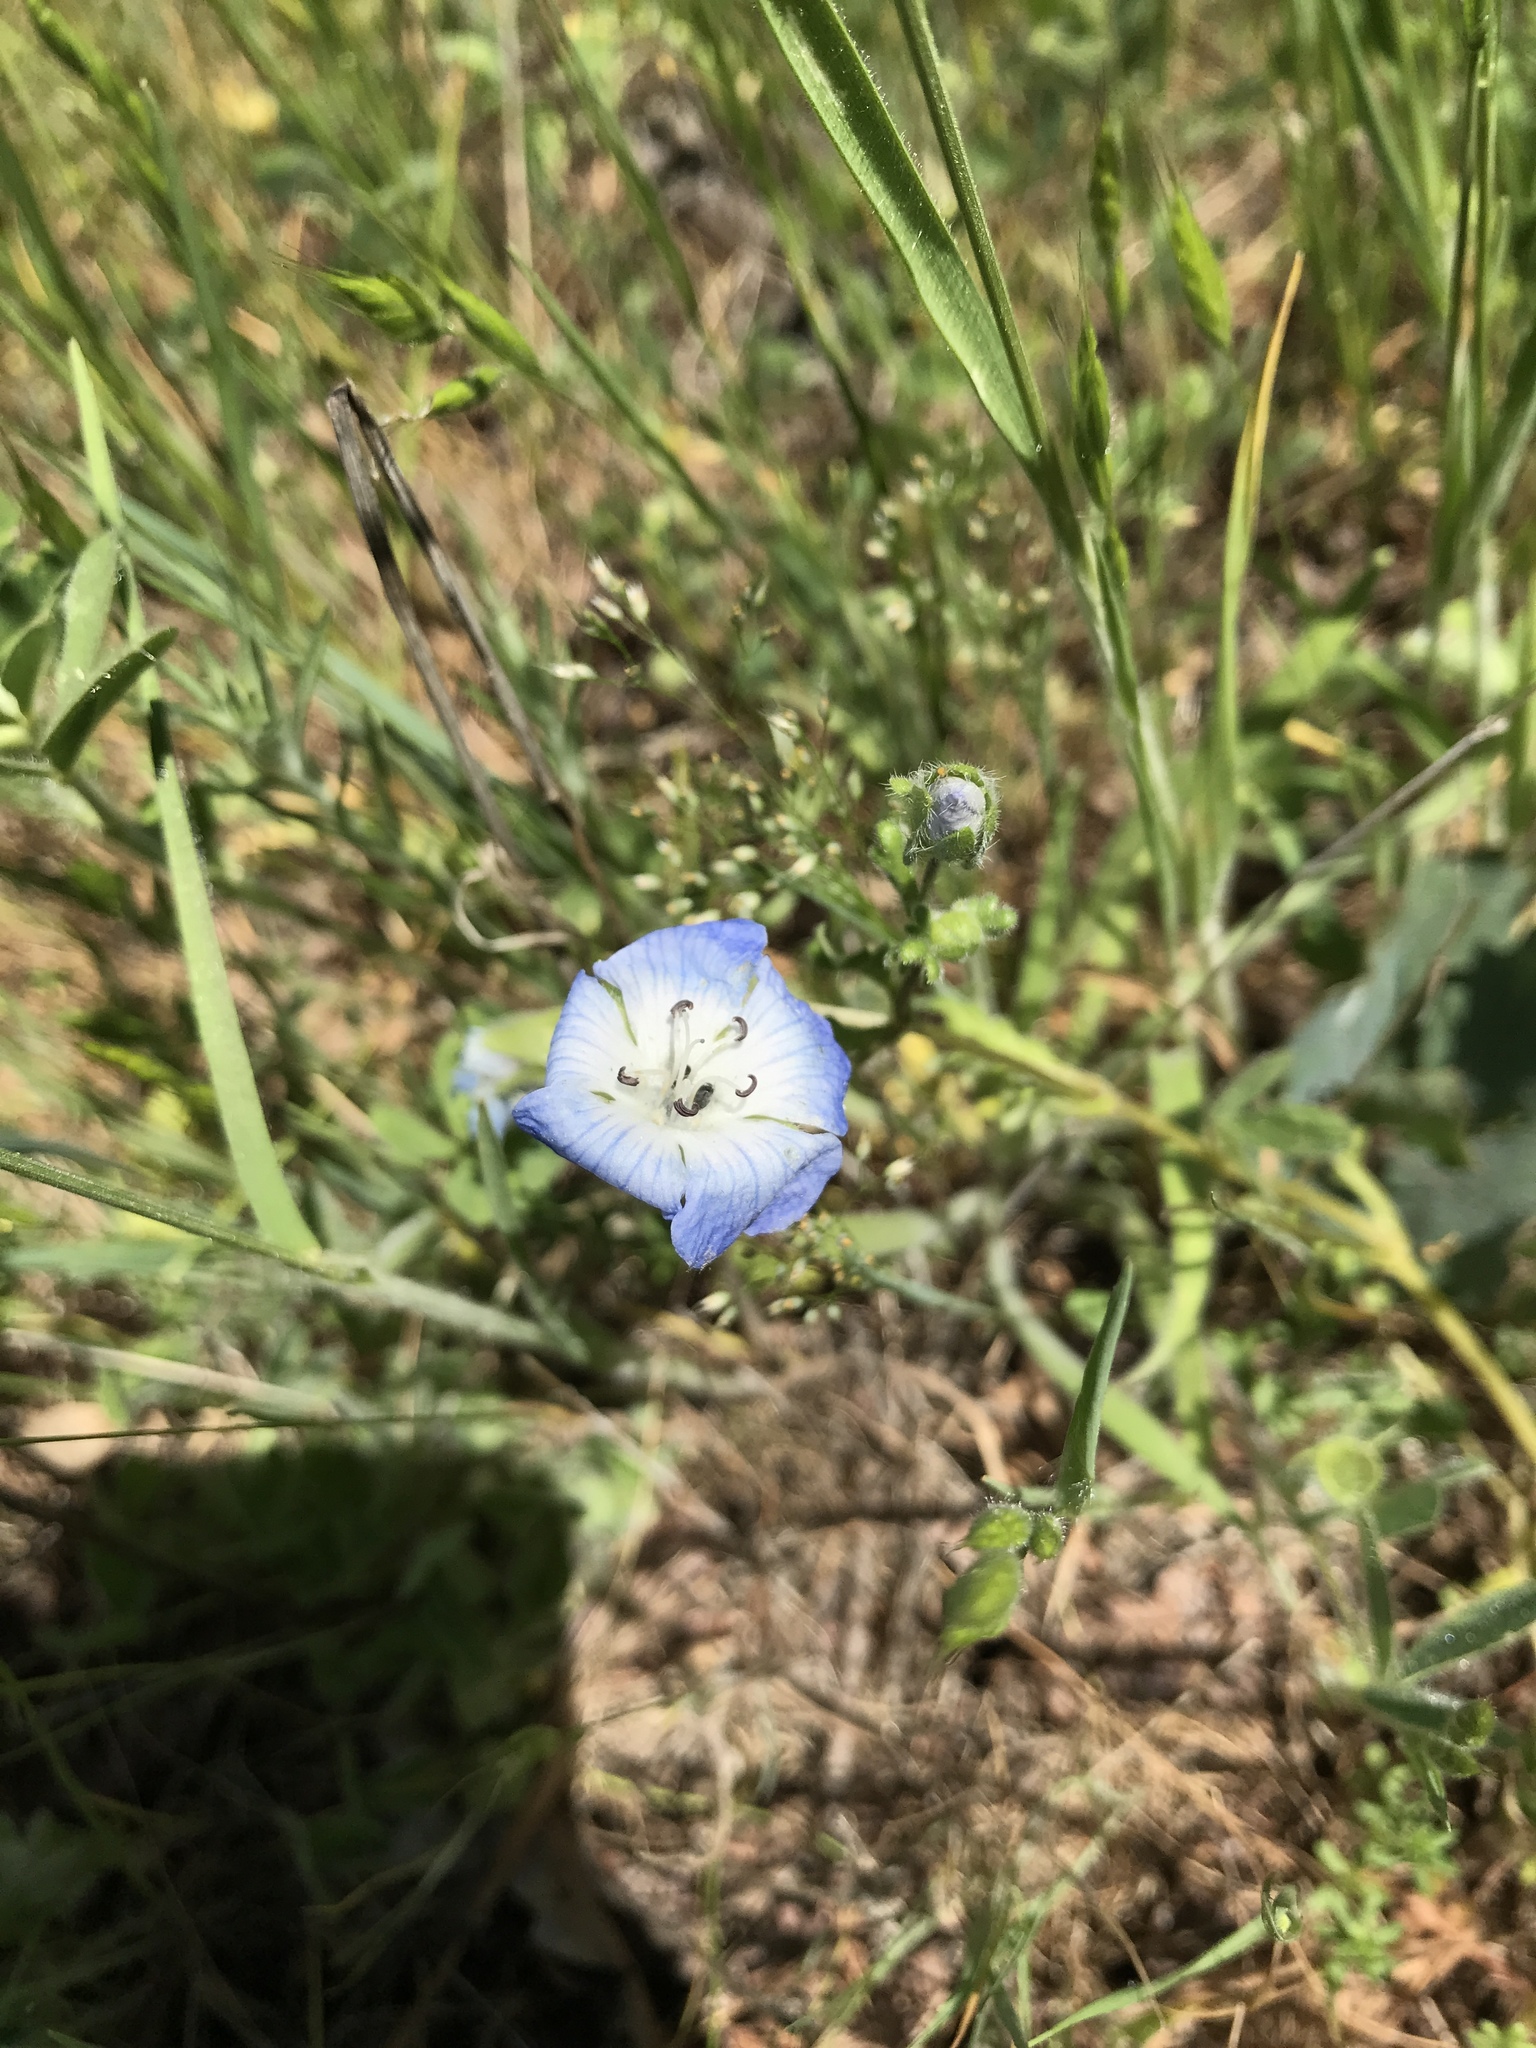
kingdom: Plantae
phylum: Tracheophyta
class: Magnoliopsida
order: Boraginales
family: Hydrophyllaceae
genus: Nemophila
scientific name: Nemophila menziesii
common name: Baby's-blue-eyes
